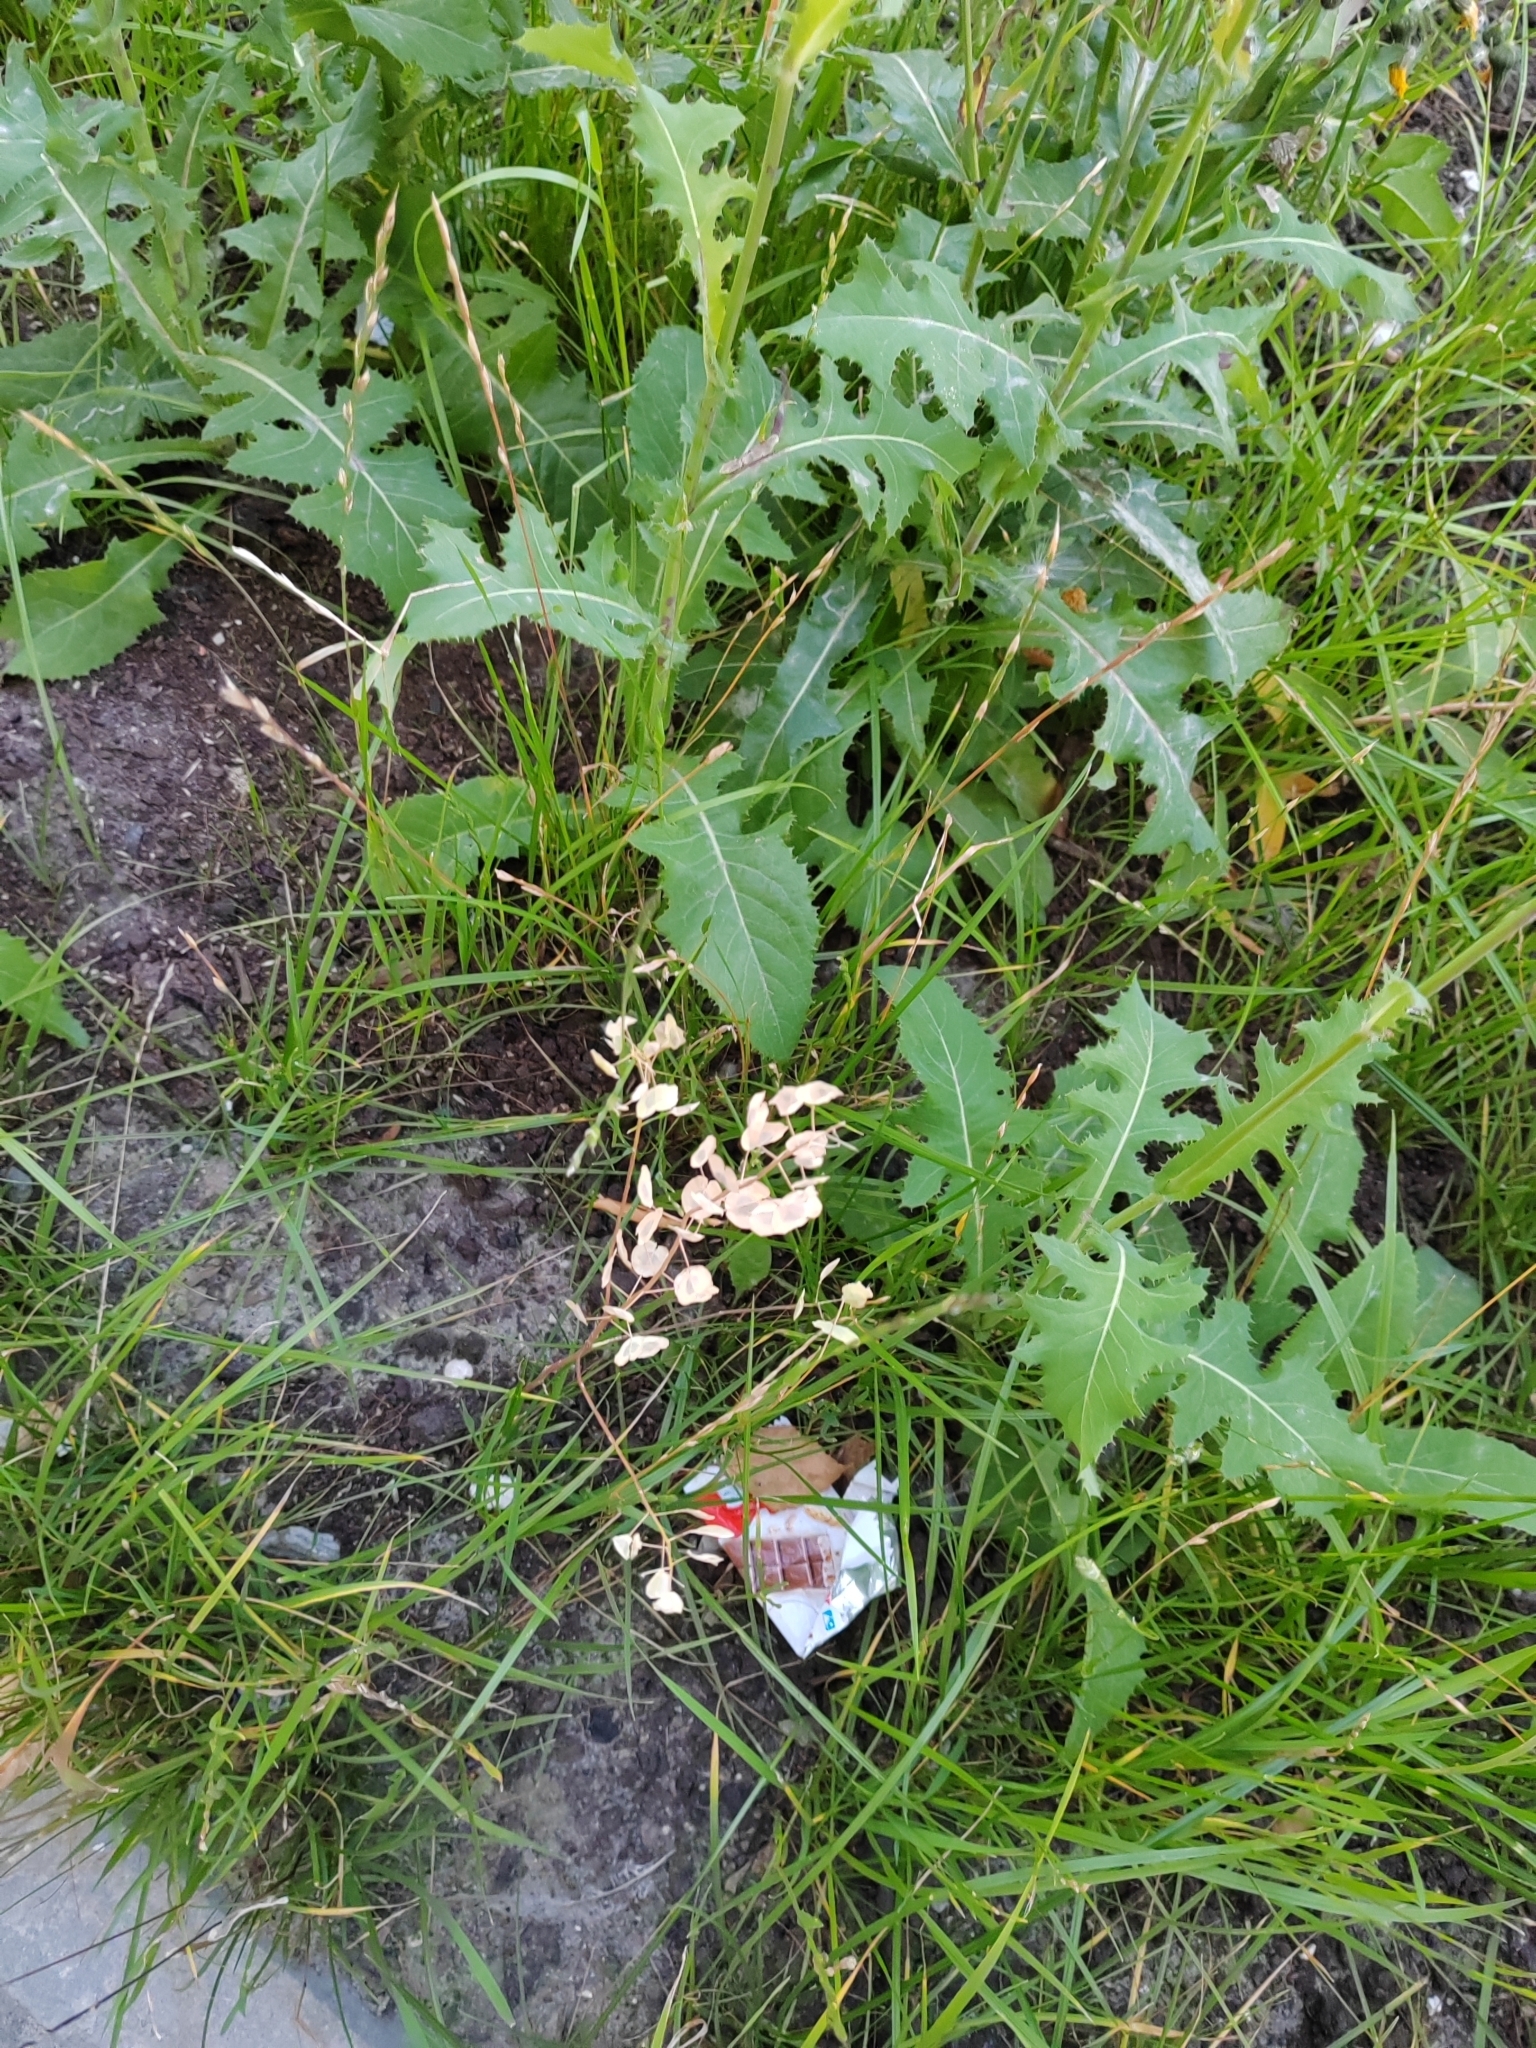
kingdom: Plantae
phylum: Tracheophyta
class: Magnoliopsida
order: Brassicales
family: Brassicaceae
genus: Thlaspi
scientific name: Thlaspi arvense
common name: Field pennycress
